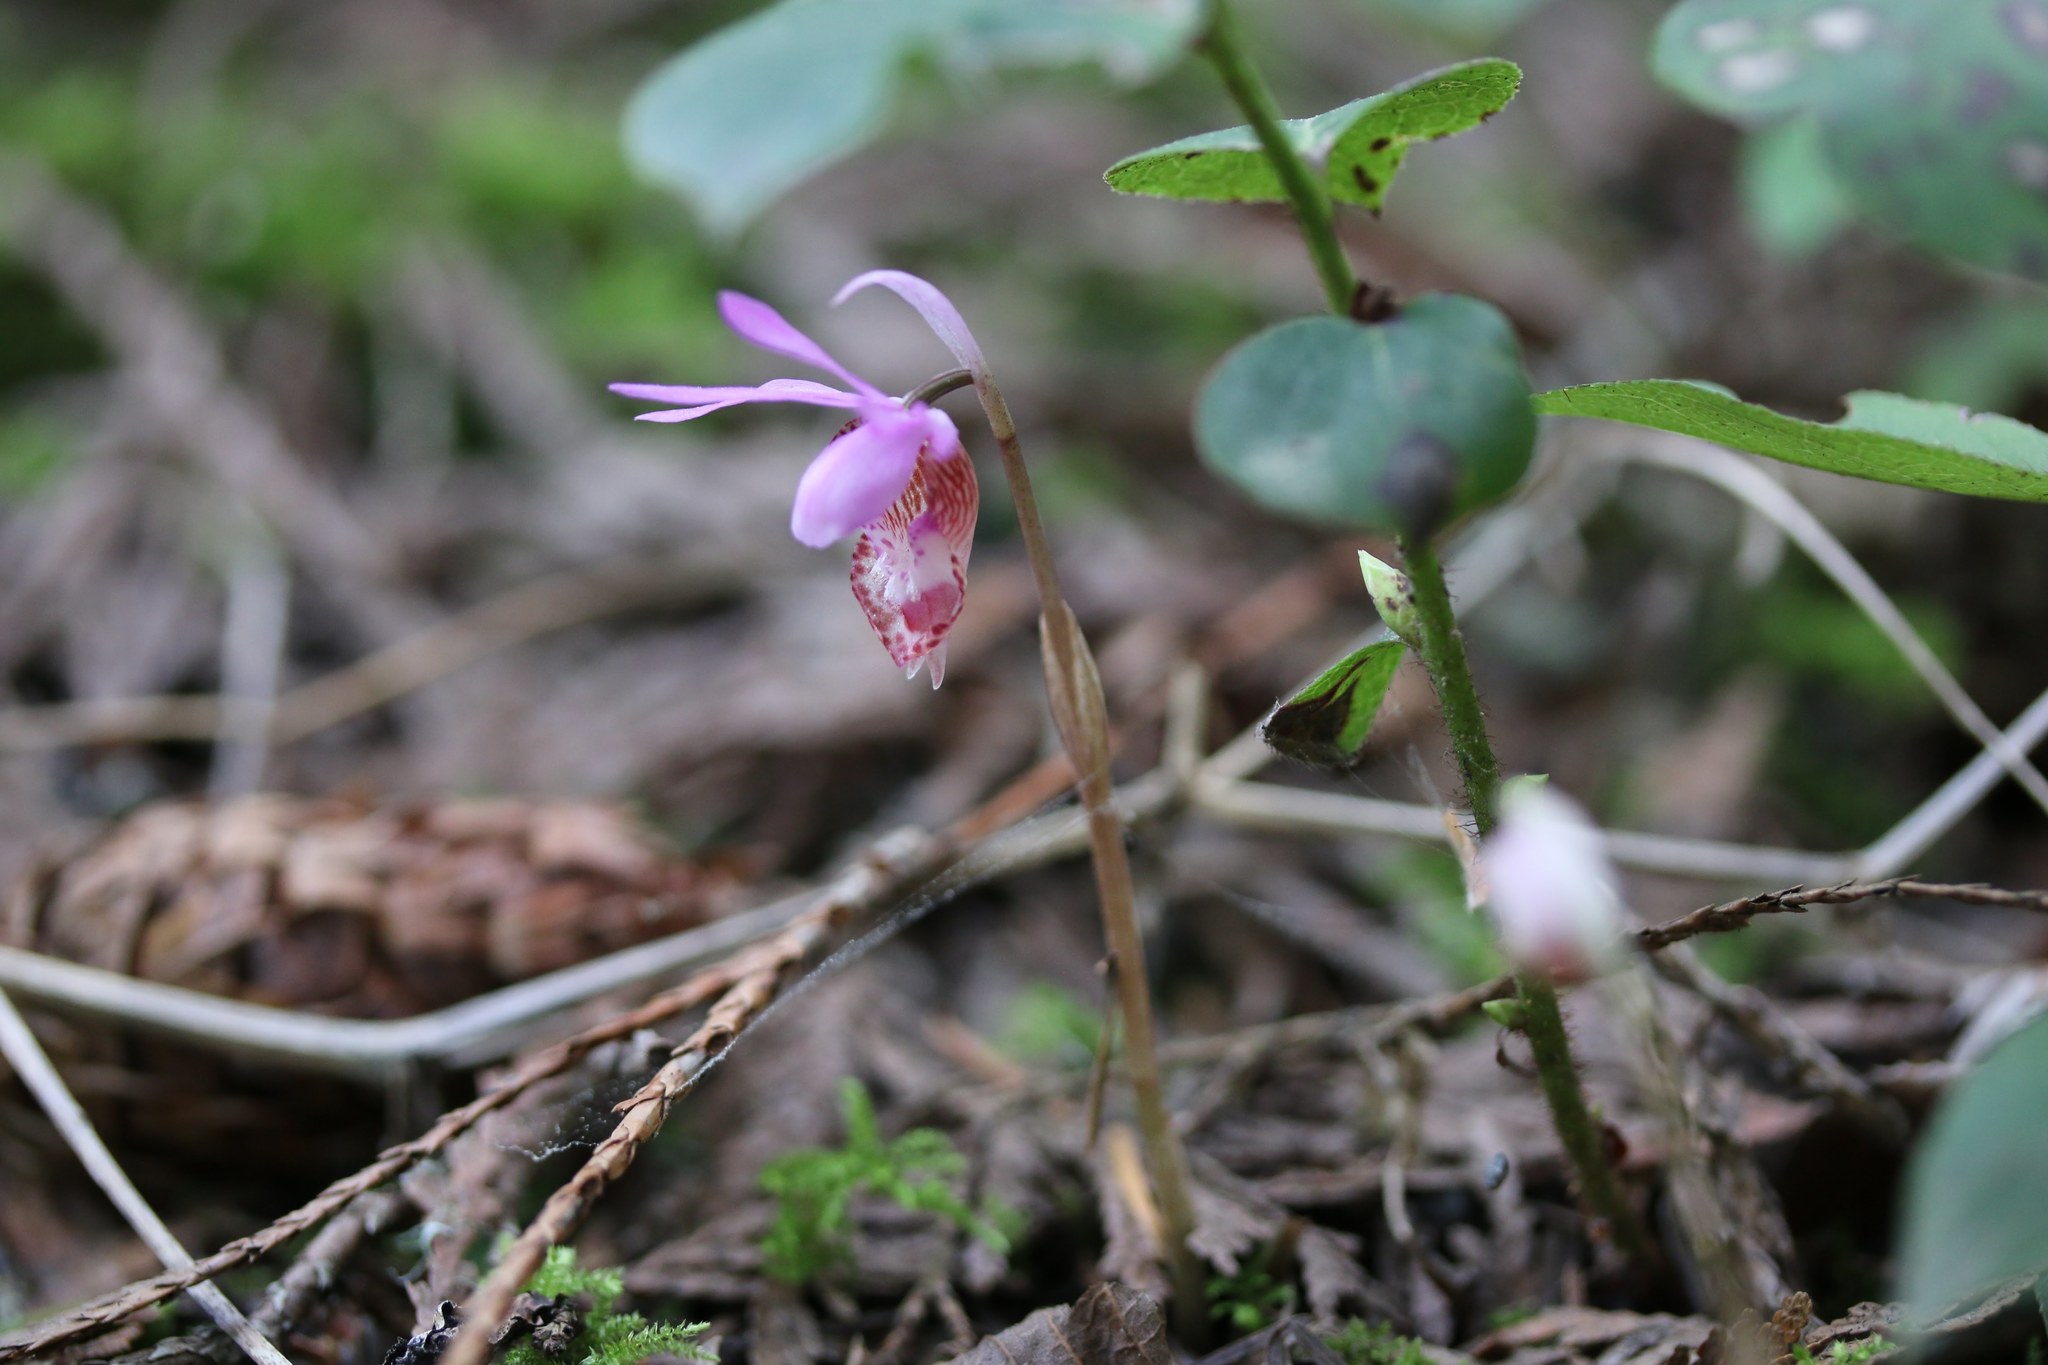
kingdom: Plantae
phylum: Tracheophyta
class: Liliopsida
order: Asparagales
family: Orchidaceae
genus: Calypso
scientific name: Calypso bulbosa
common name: Calypso
